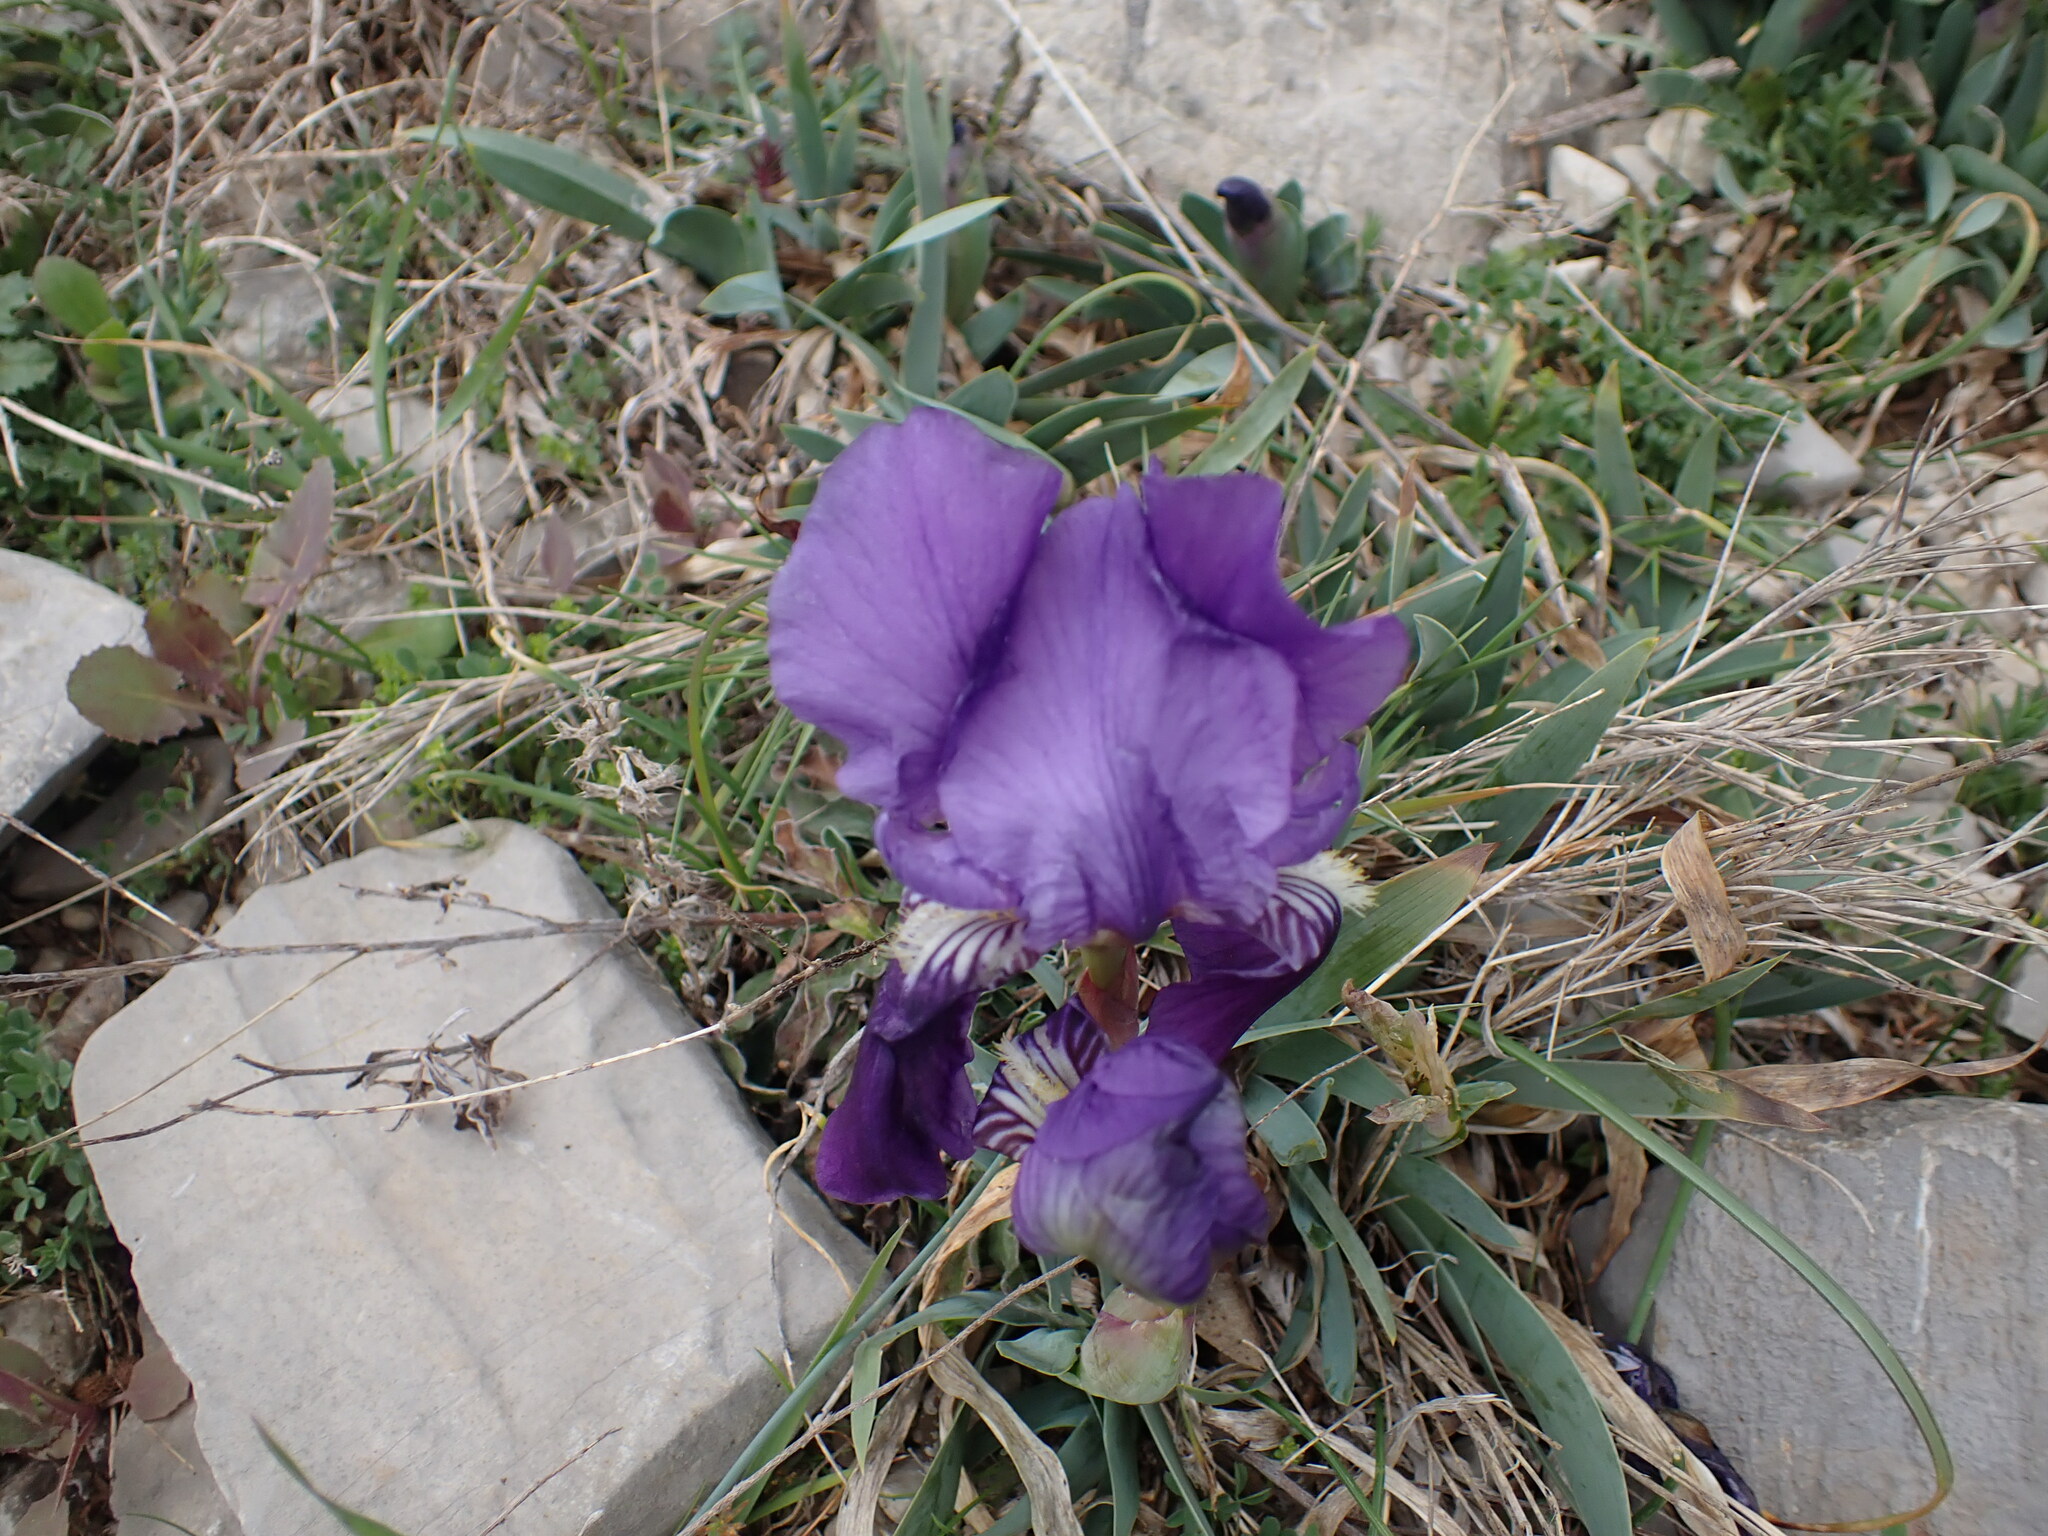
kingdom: Plantae
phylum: Tracheophyta
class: Liliopsida
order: Asparagales
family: Iridaceae
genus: Iris
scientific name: Iris lutescens
